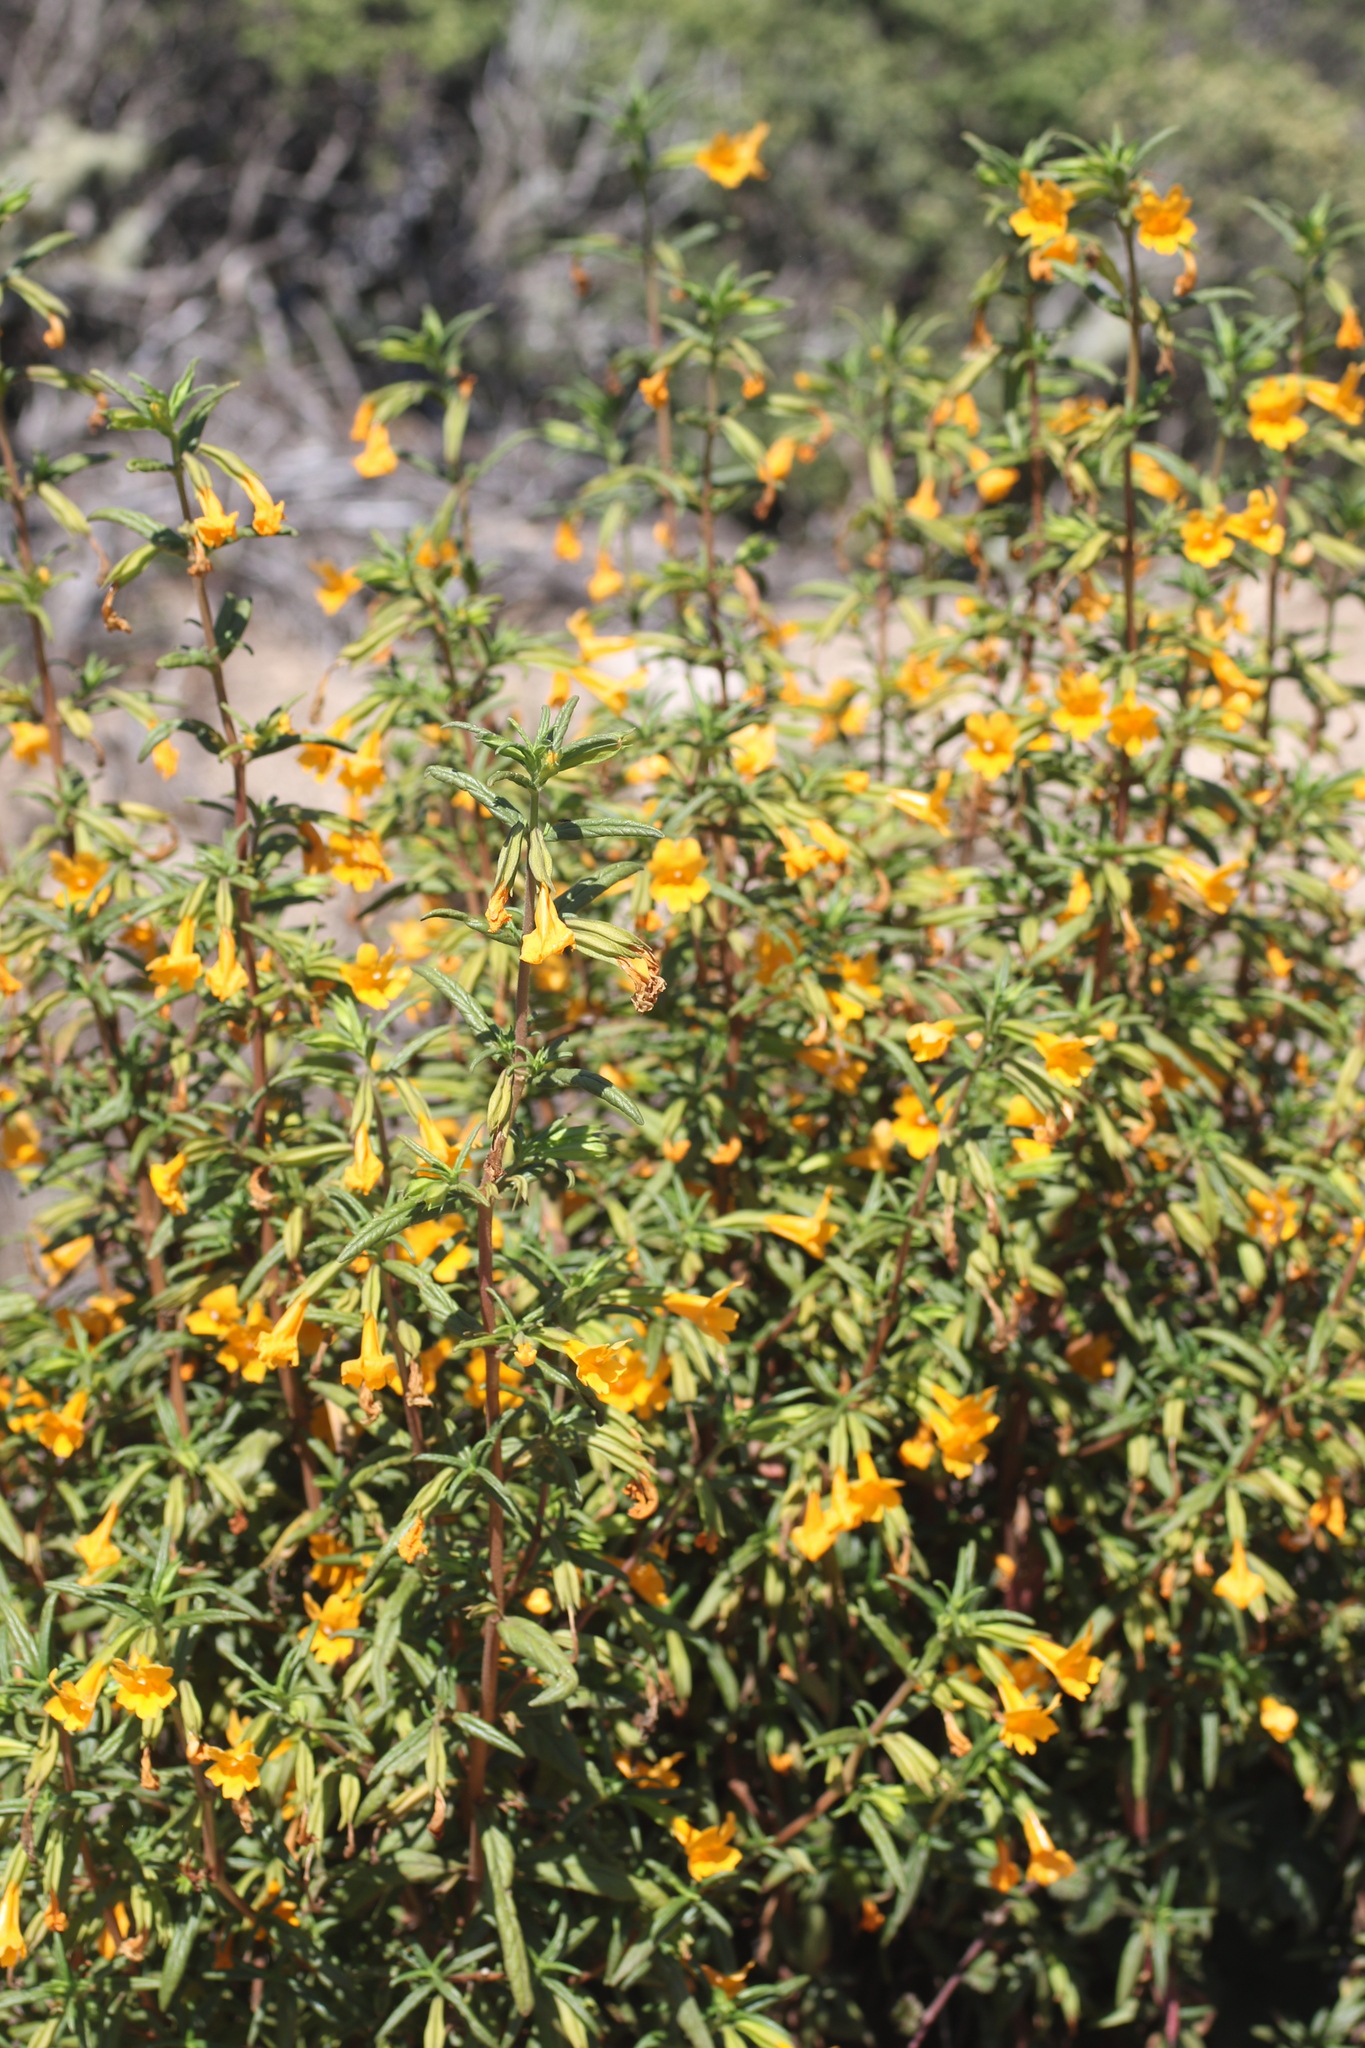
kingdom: Plantae
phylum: Tracheophyta
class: Magnoliopsida
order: Lamiales
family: Phrymaceae
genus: Diplacus
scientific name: Diplacus aurantiacus
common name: Bush monkey-flower
